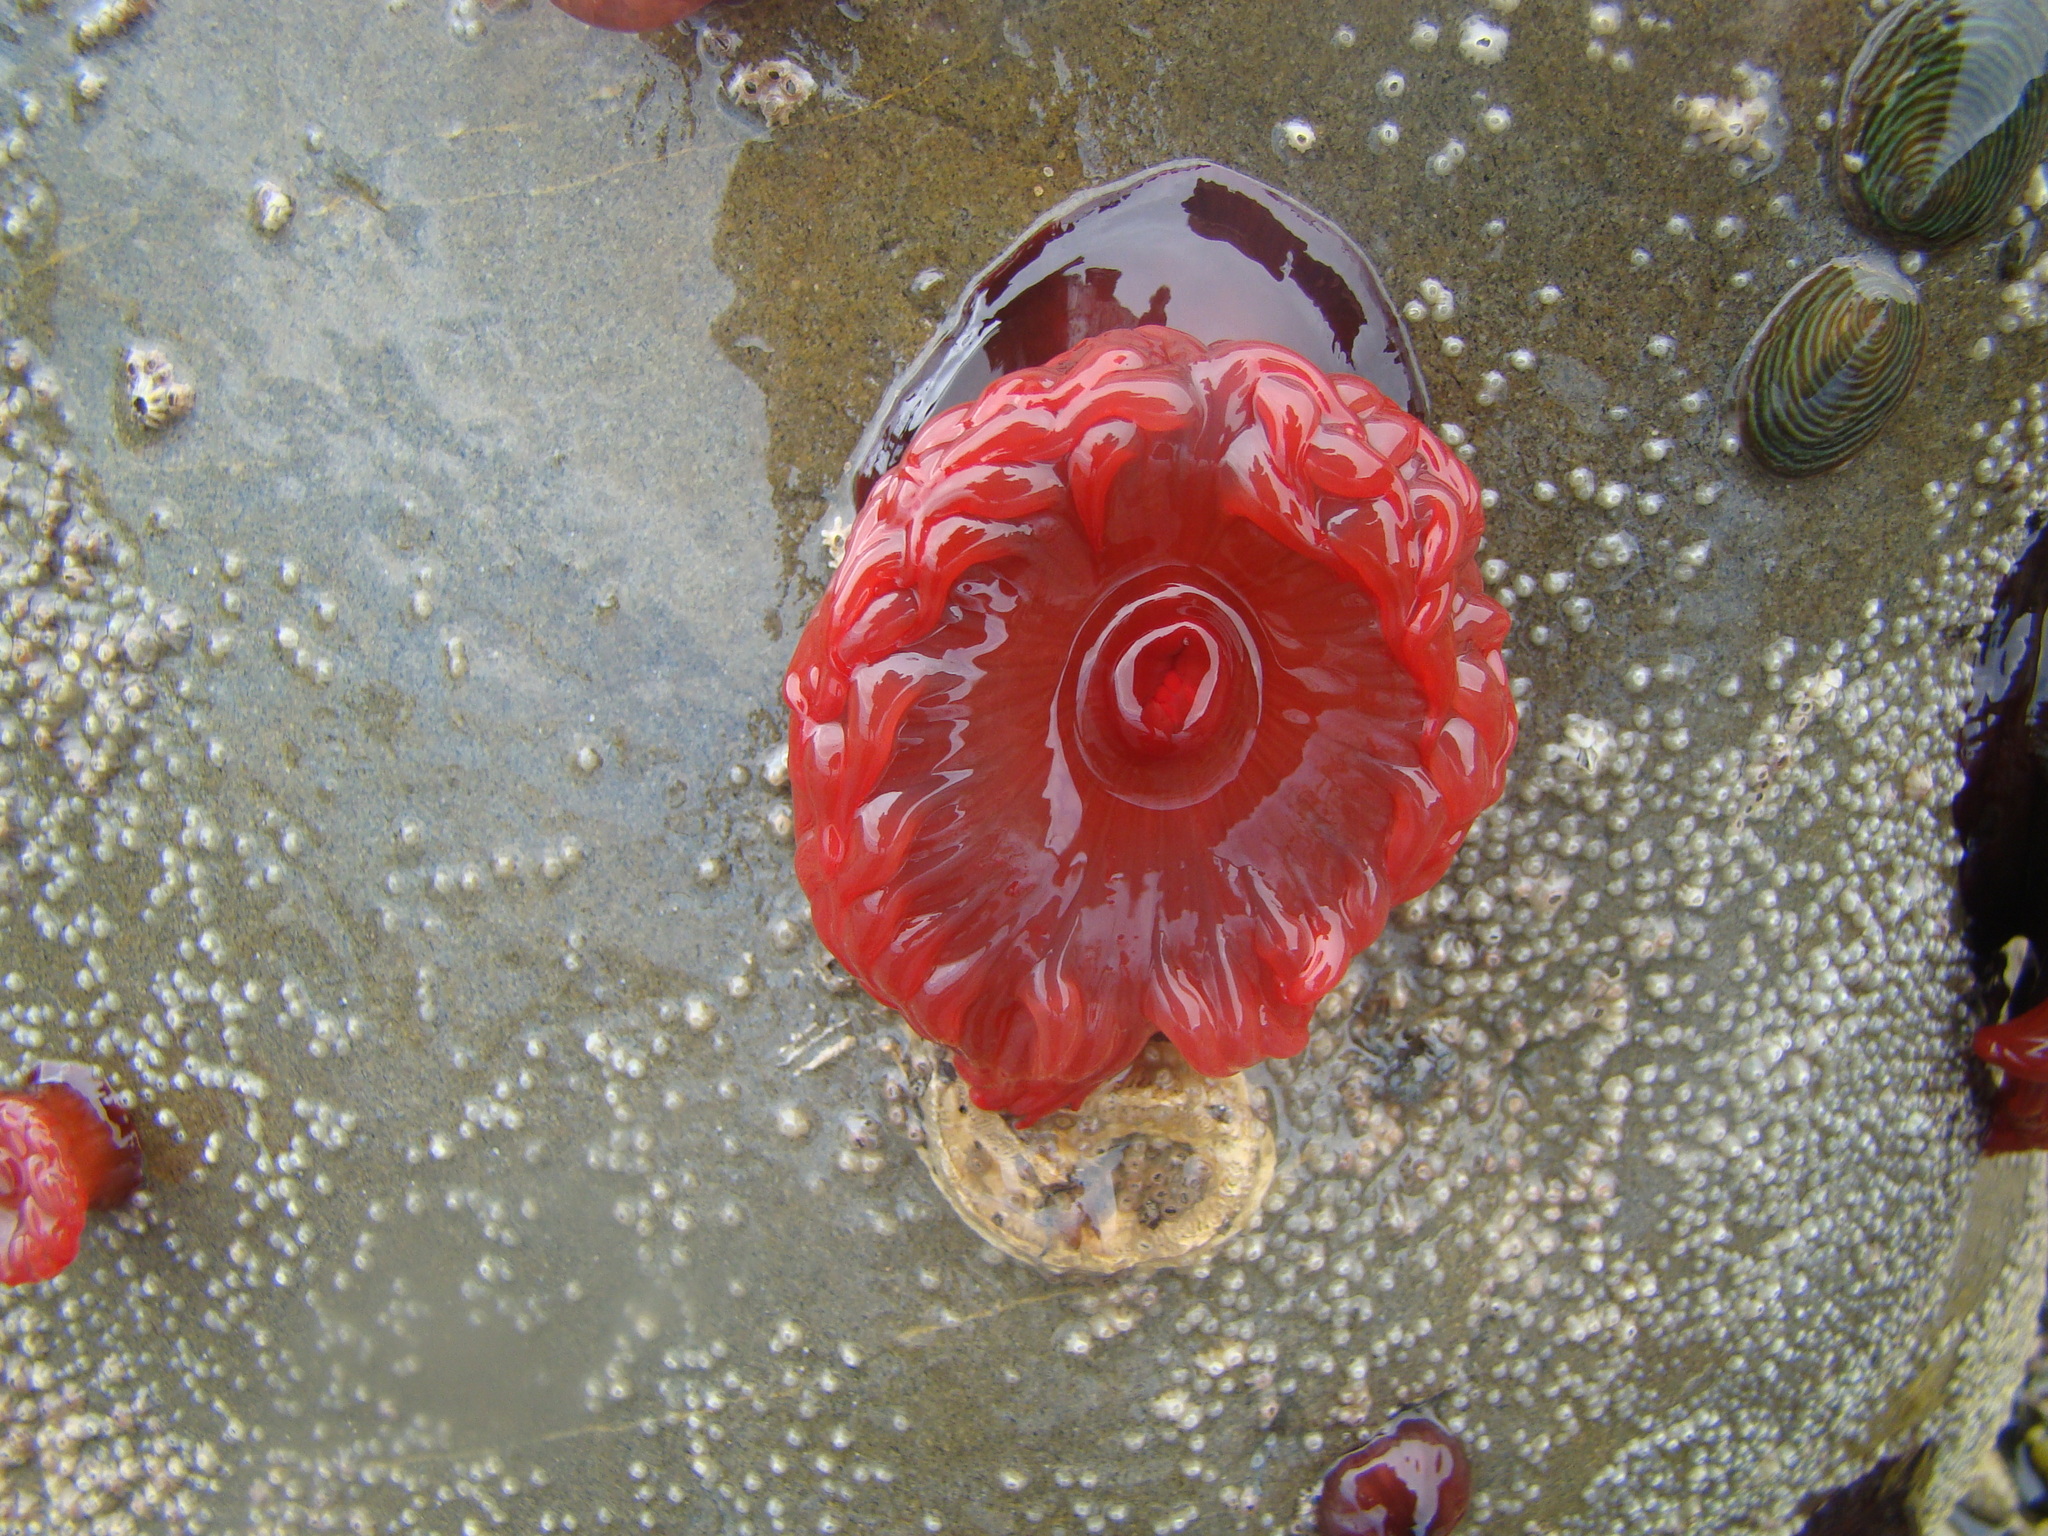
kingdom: Animalia
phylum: Cnidaria
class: Anthozoa
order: Actiniaria
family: Actiniidae
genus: Actinia
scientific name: Actinia tenebrosa
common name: Waratah anemone
